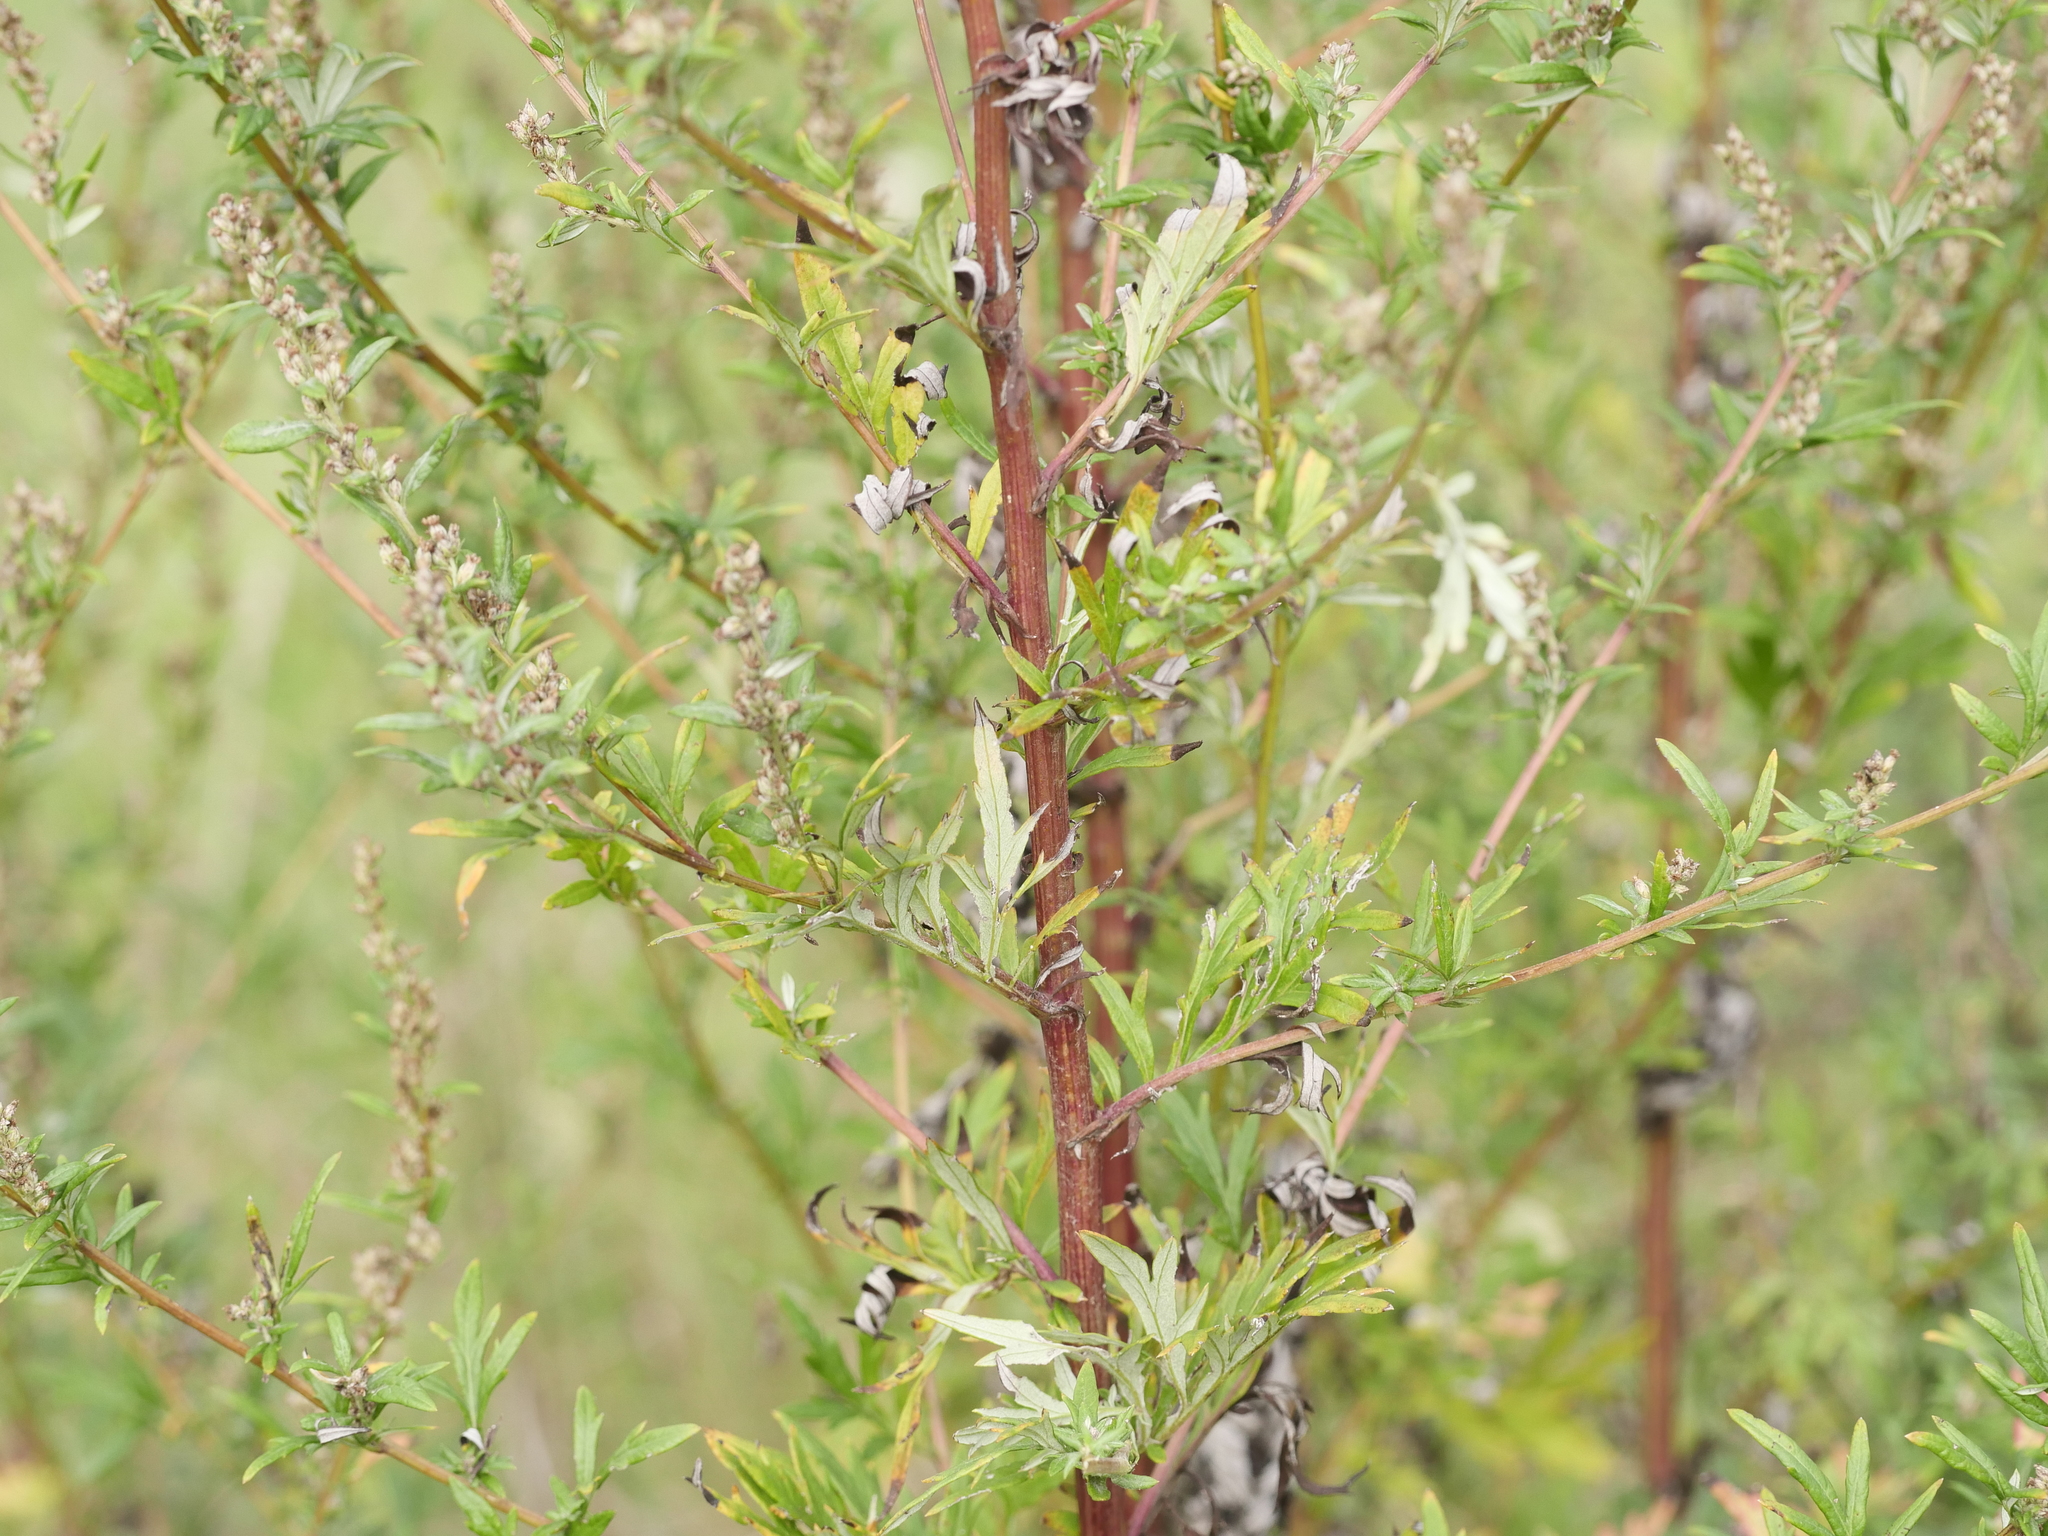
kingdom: Plantae
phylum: Tracheophyta
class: Magnoliopsida
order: Asterales
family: Asteraceae
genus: Artemisia
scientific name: Artemisia vulgaris
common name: Mugwort
